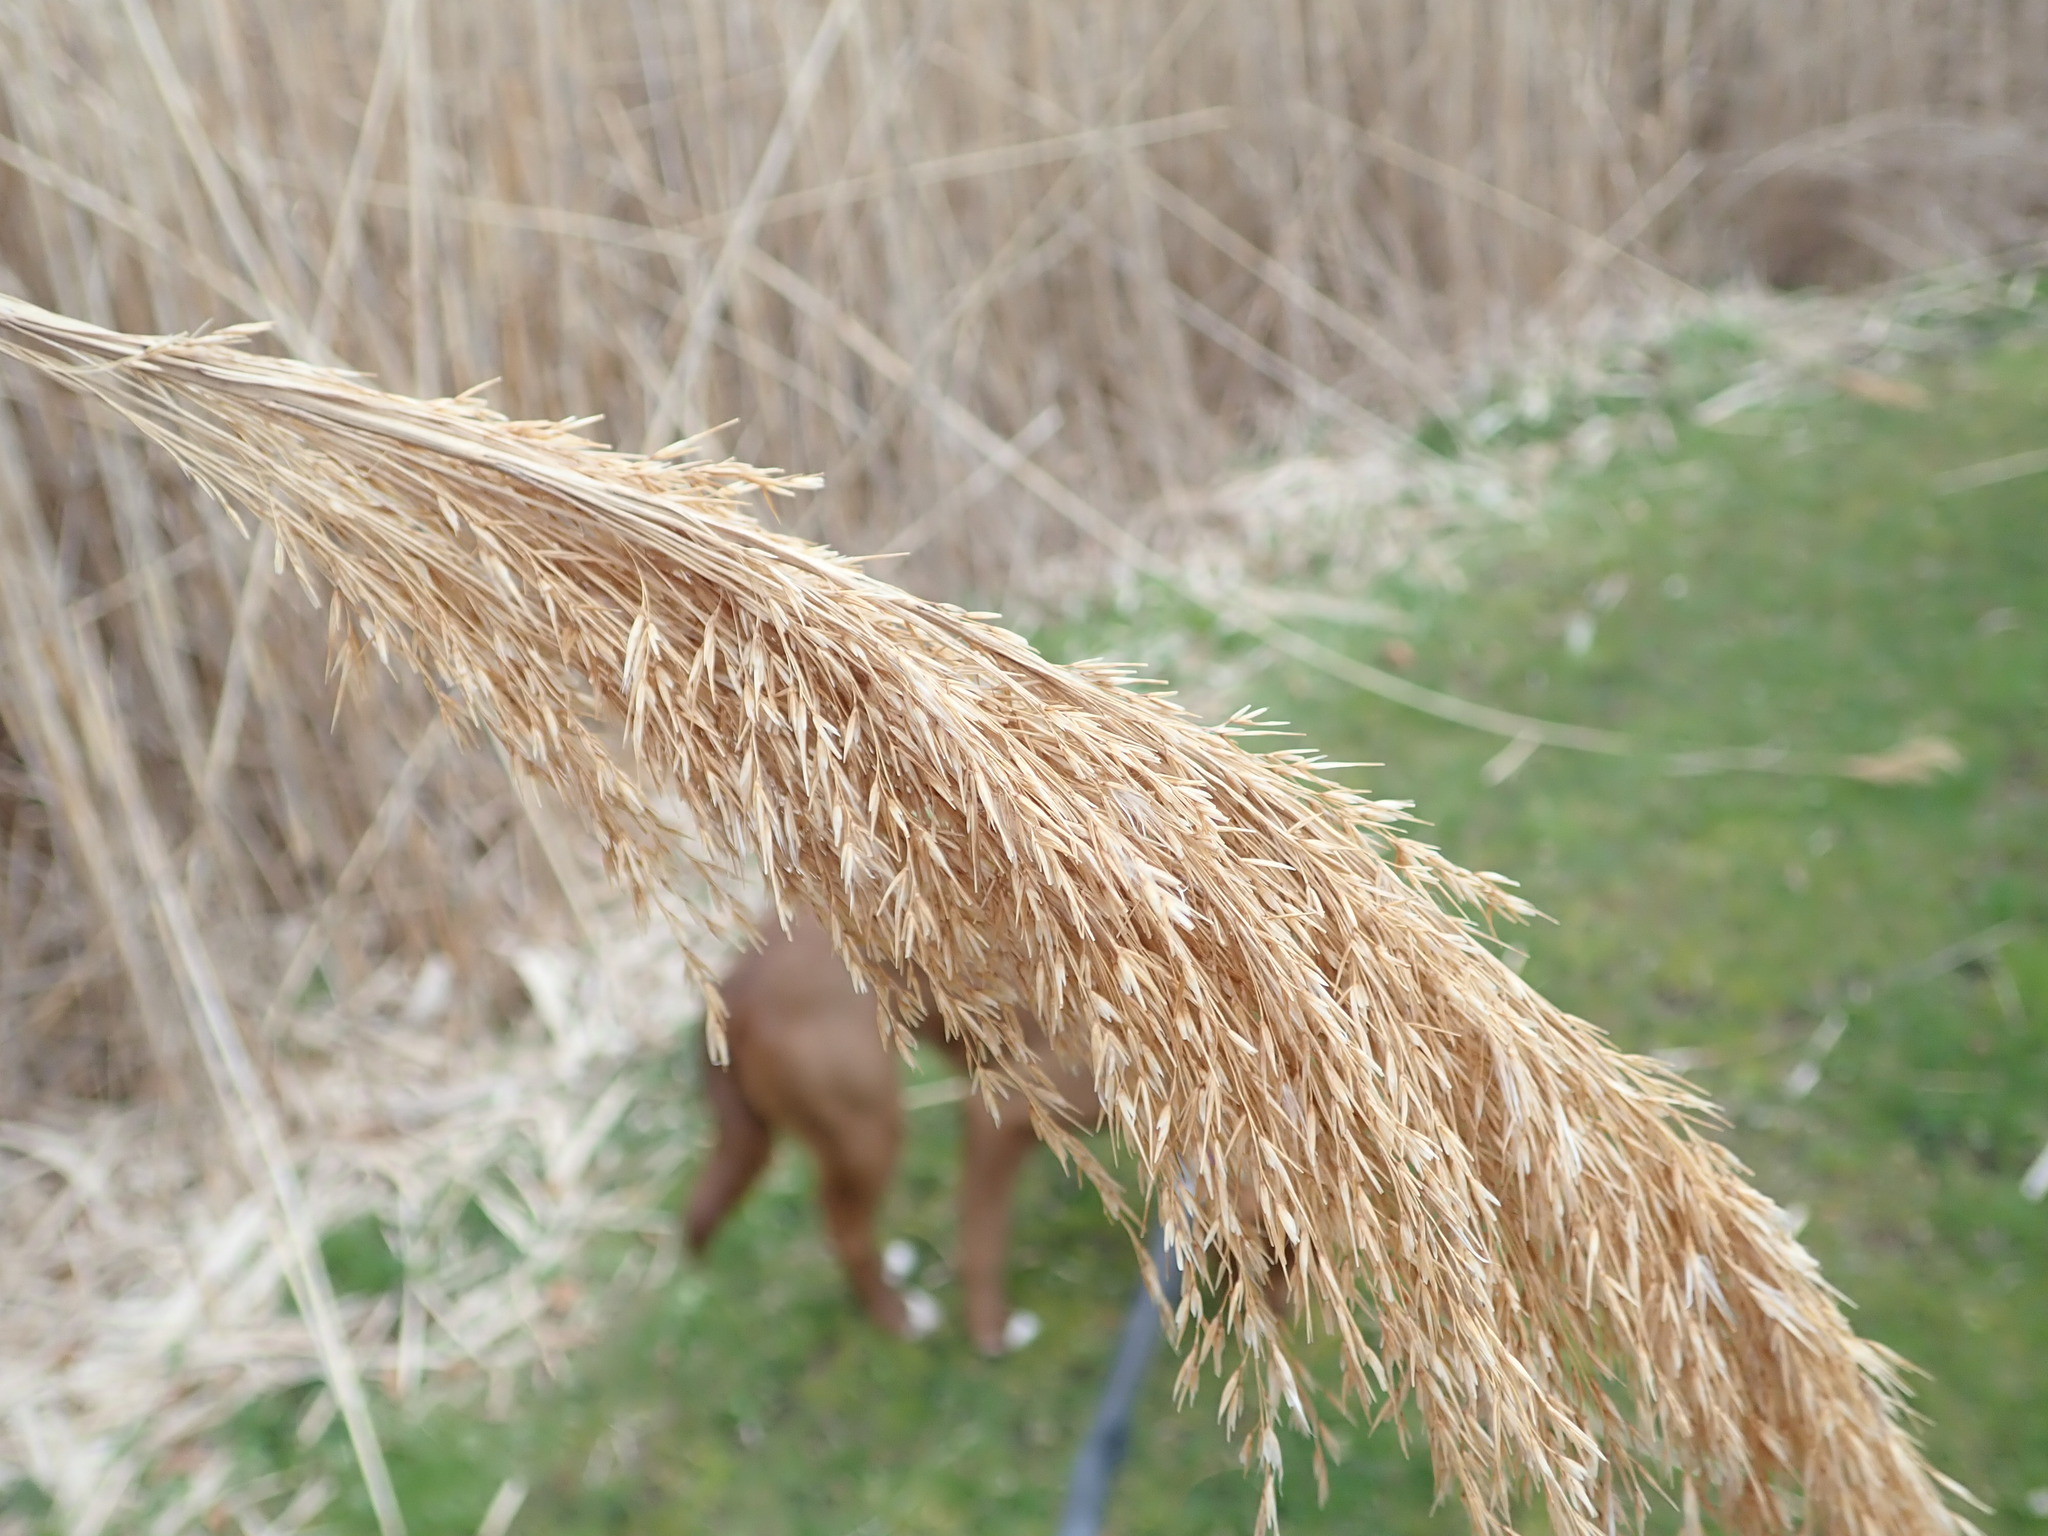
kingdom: Plantae
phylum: Tracheophyta
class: Liliopsida
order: Poales
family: Poaceae
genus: Phragmites
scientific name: Phragmites australis
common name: Common reed
